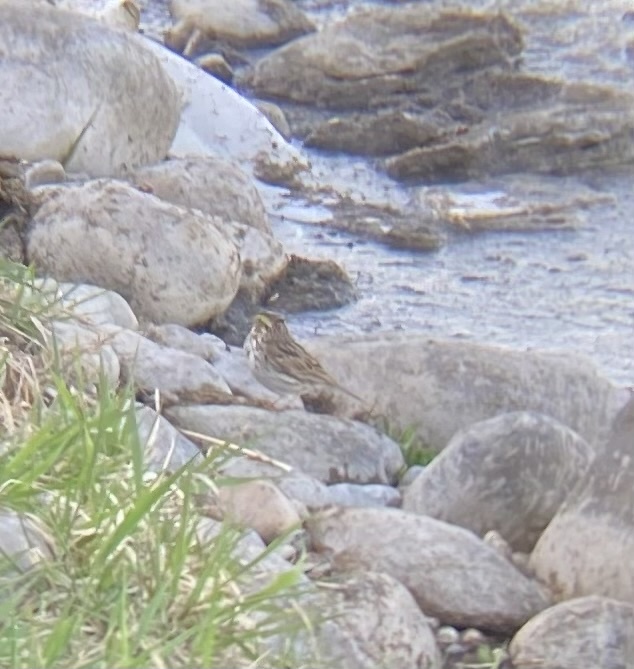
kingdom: Animalia
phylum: Chordata
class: Aves
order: Passeriformes
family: Passerellidae
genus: Passerculus
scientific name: Passerculus sandwichensis
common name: Savannah sparrow
